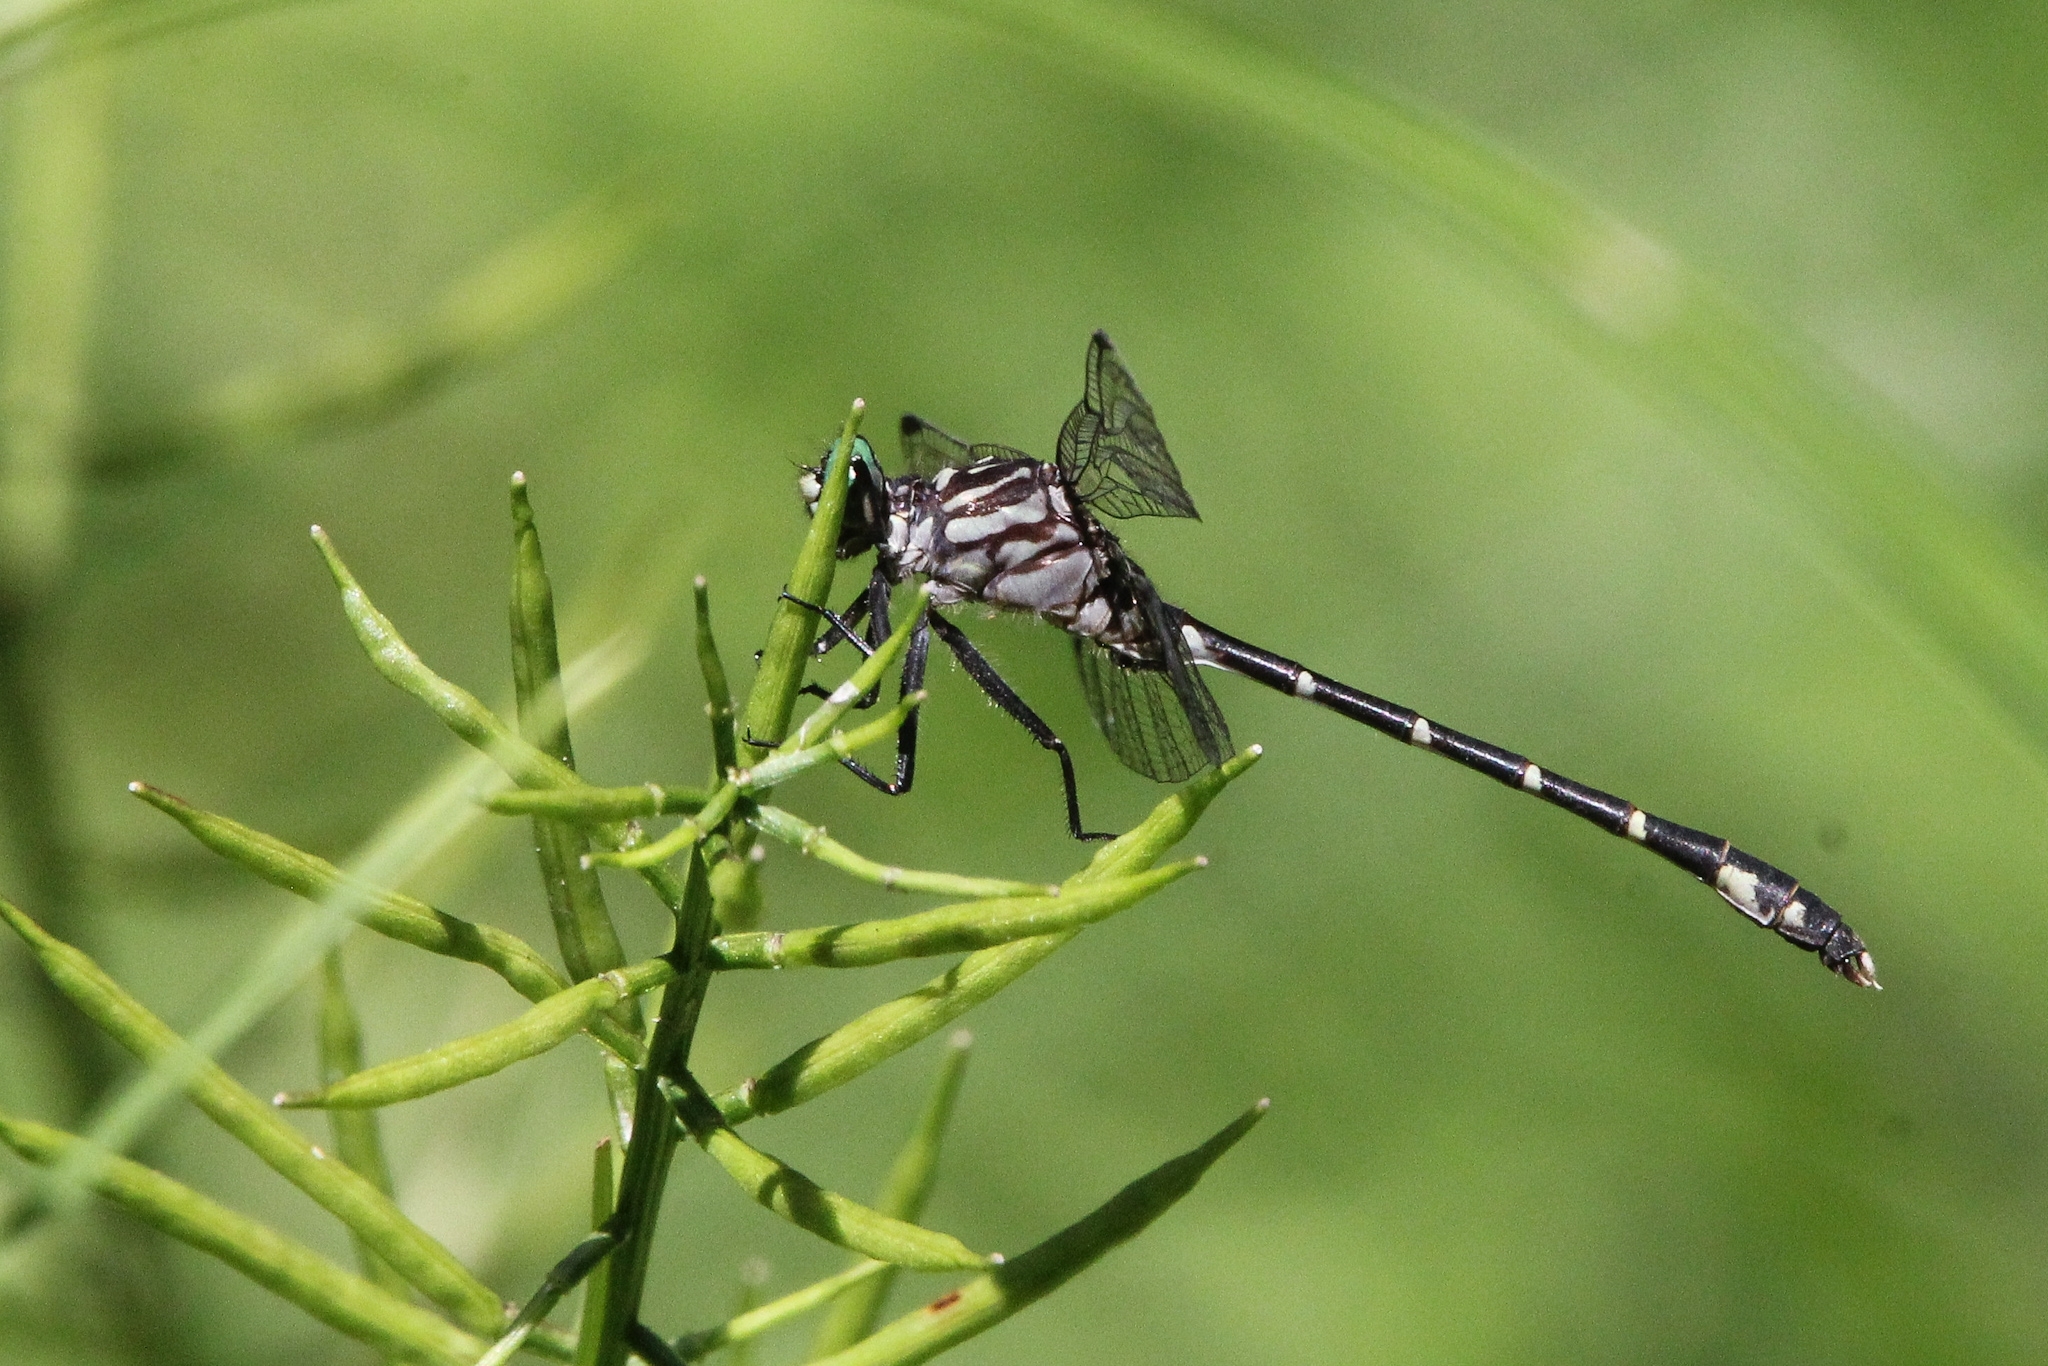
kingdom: Animalia
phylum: Arthropoda
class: Insecta
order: Odonata
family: Gomphidae
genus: Stylogomphus
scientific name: Stylogomphus albistylus
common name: Eastern least clubtail
